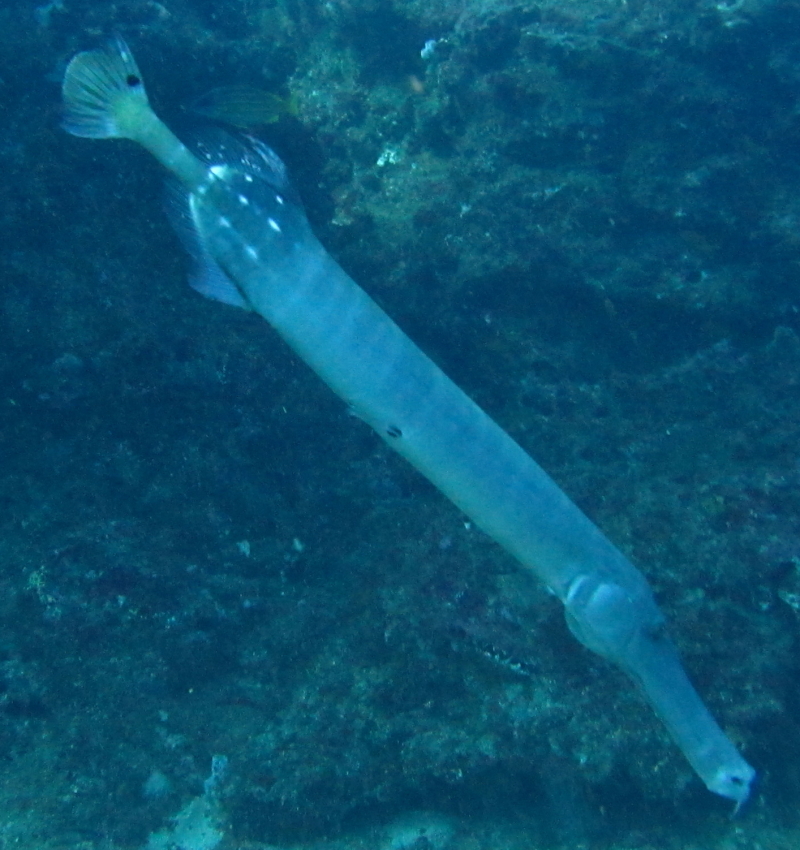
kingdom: Animalia
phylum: Chordata
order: Syngnathiformes
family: Aulostomidae
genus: Aulostomus
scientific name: Aulostomus chinensis
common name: Chinese trumpetfish
